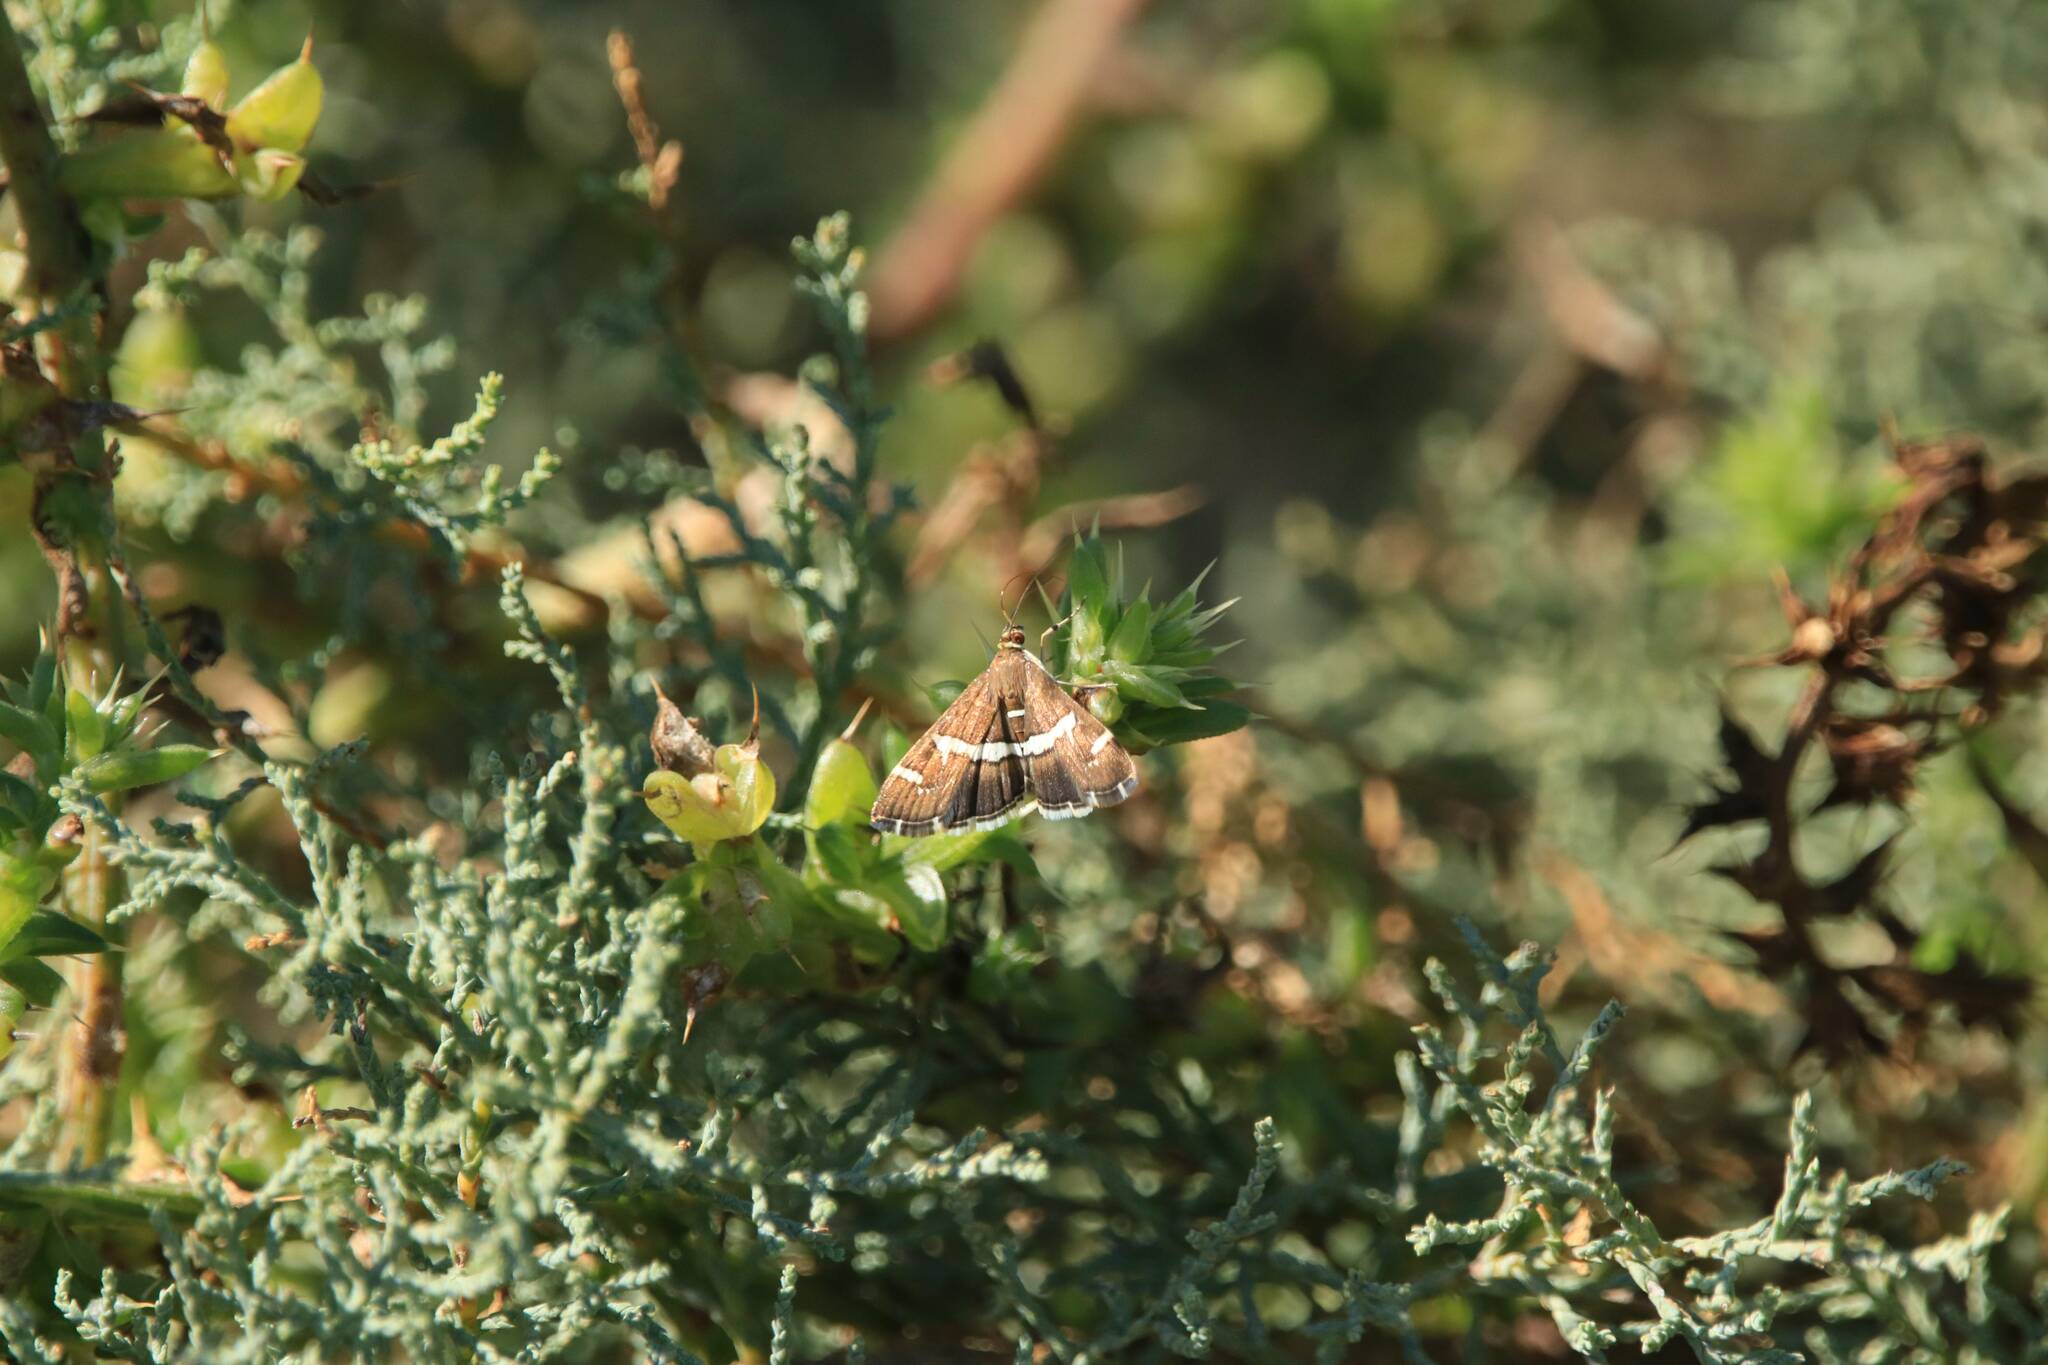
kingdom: Animalia
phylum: Arthropoda
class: Insecta
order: Lepidoptera
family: Crambidae
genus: Spoladea
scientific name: Spoladea recurvalis
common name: Beet webworm moth
